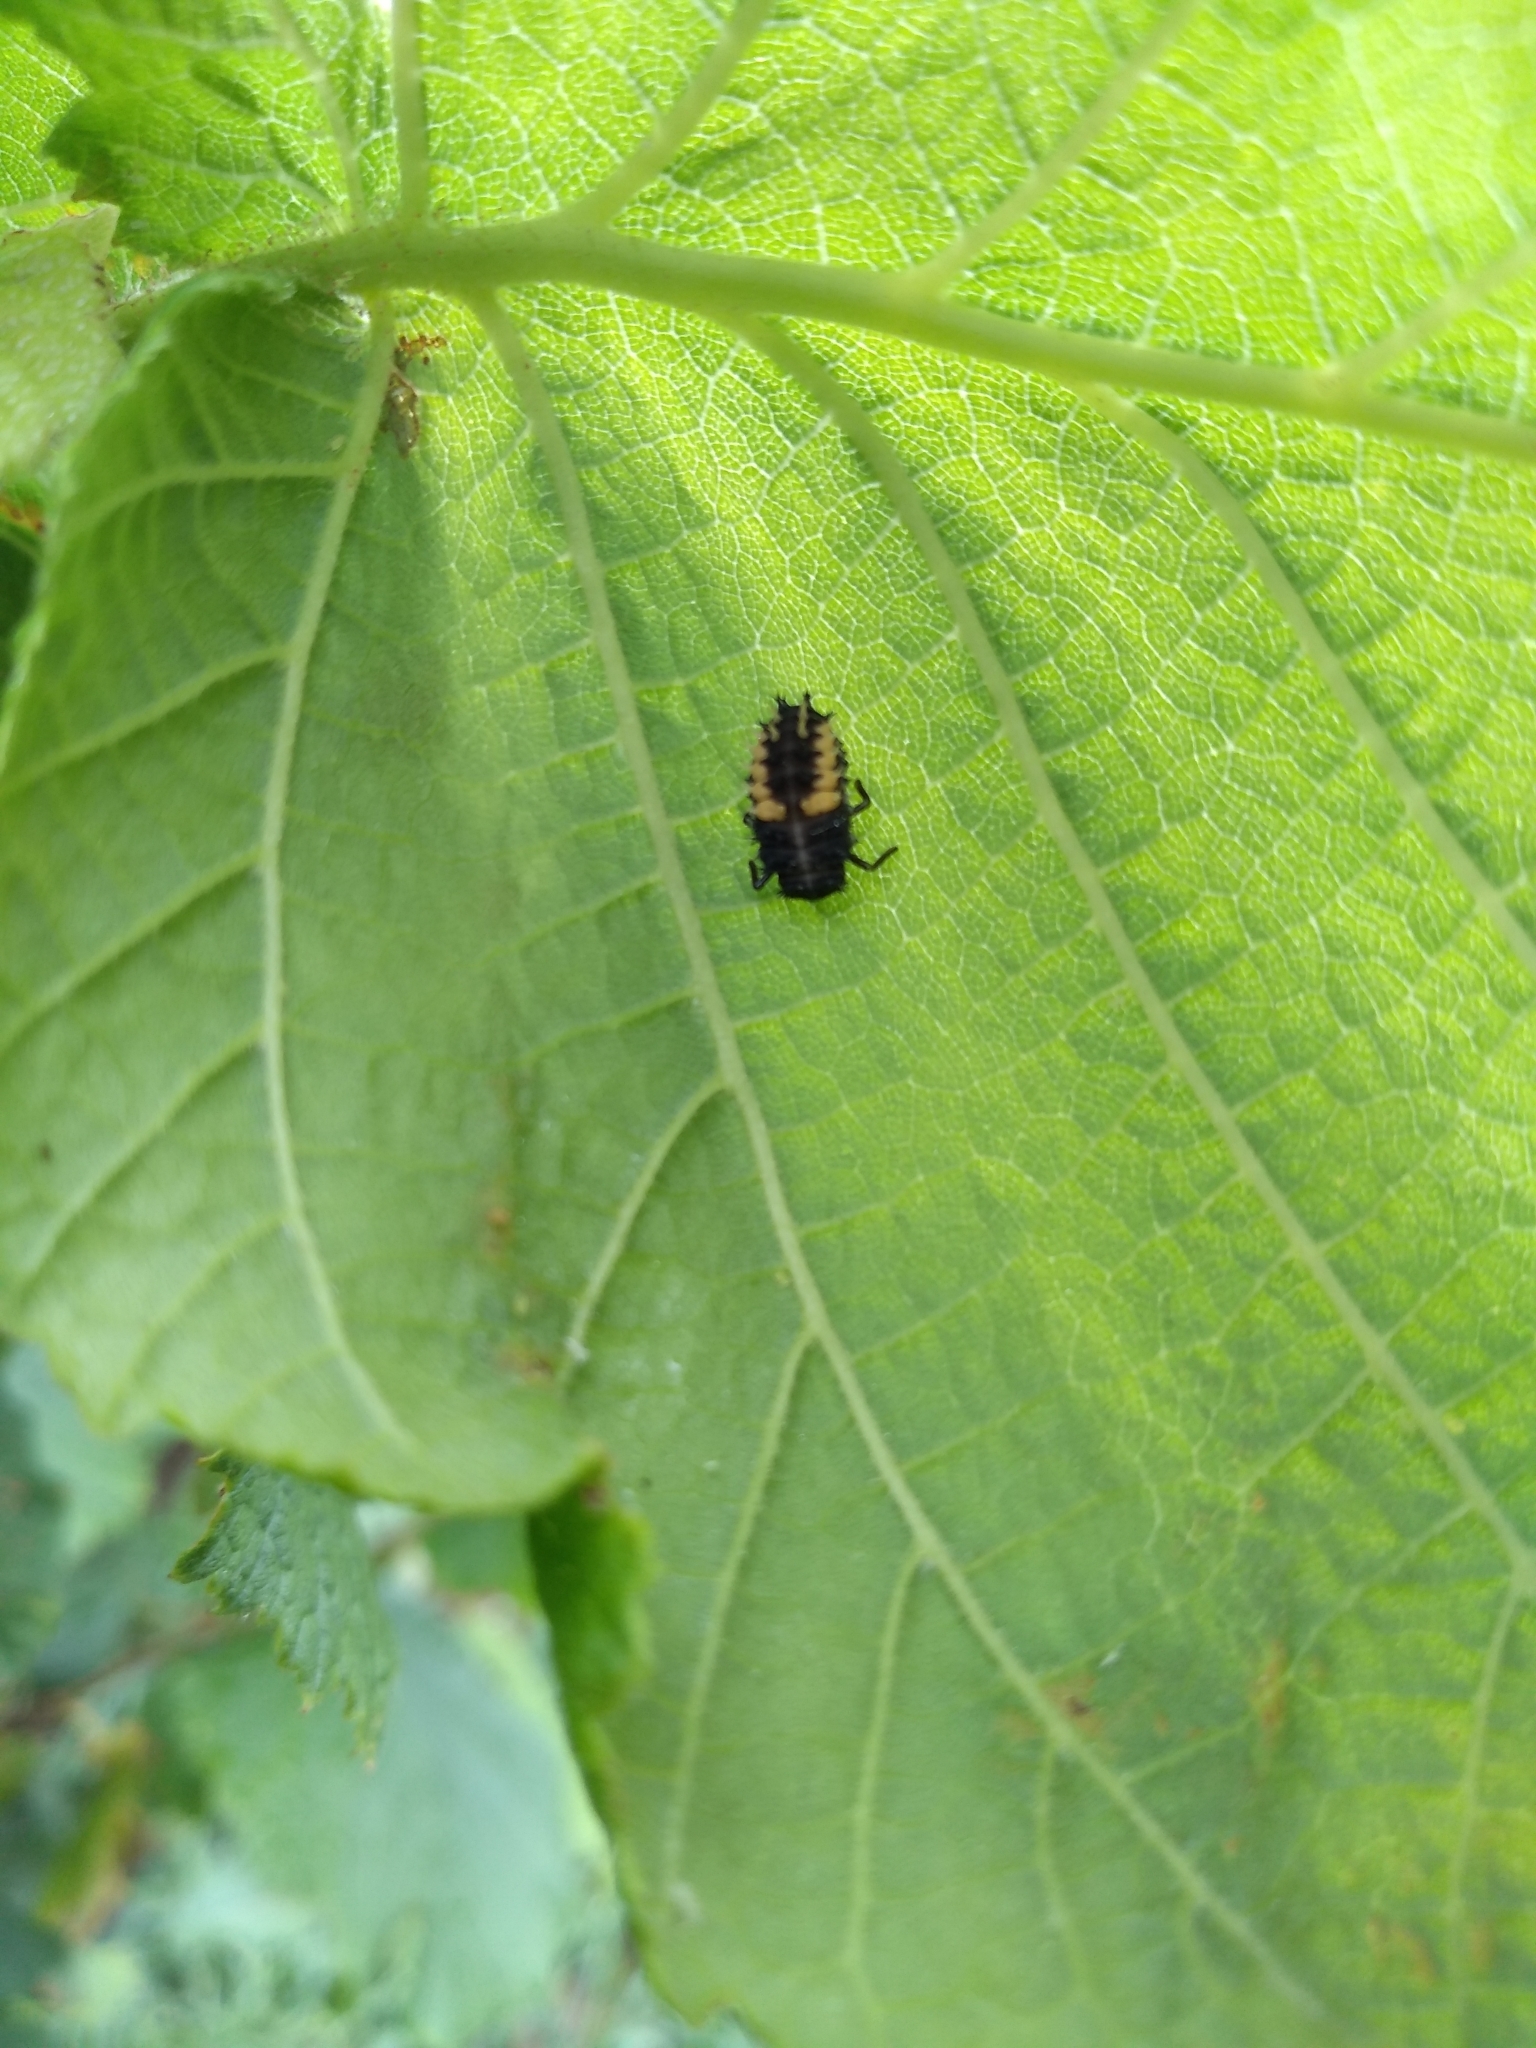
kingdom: Animalia
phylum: Arthropoda
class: Insecta
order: Coleoptera
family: Coccinellidae
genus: Harmonia
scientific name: Harmonia axyridis
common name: Harlequin ladybird
